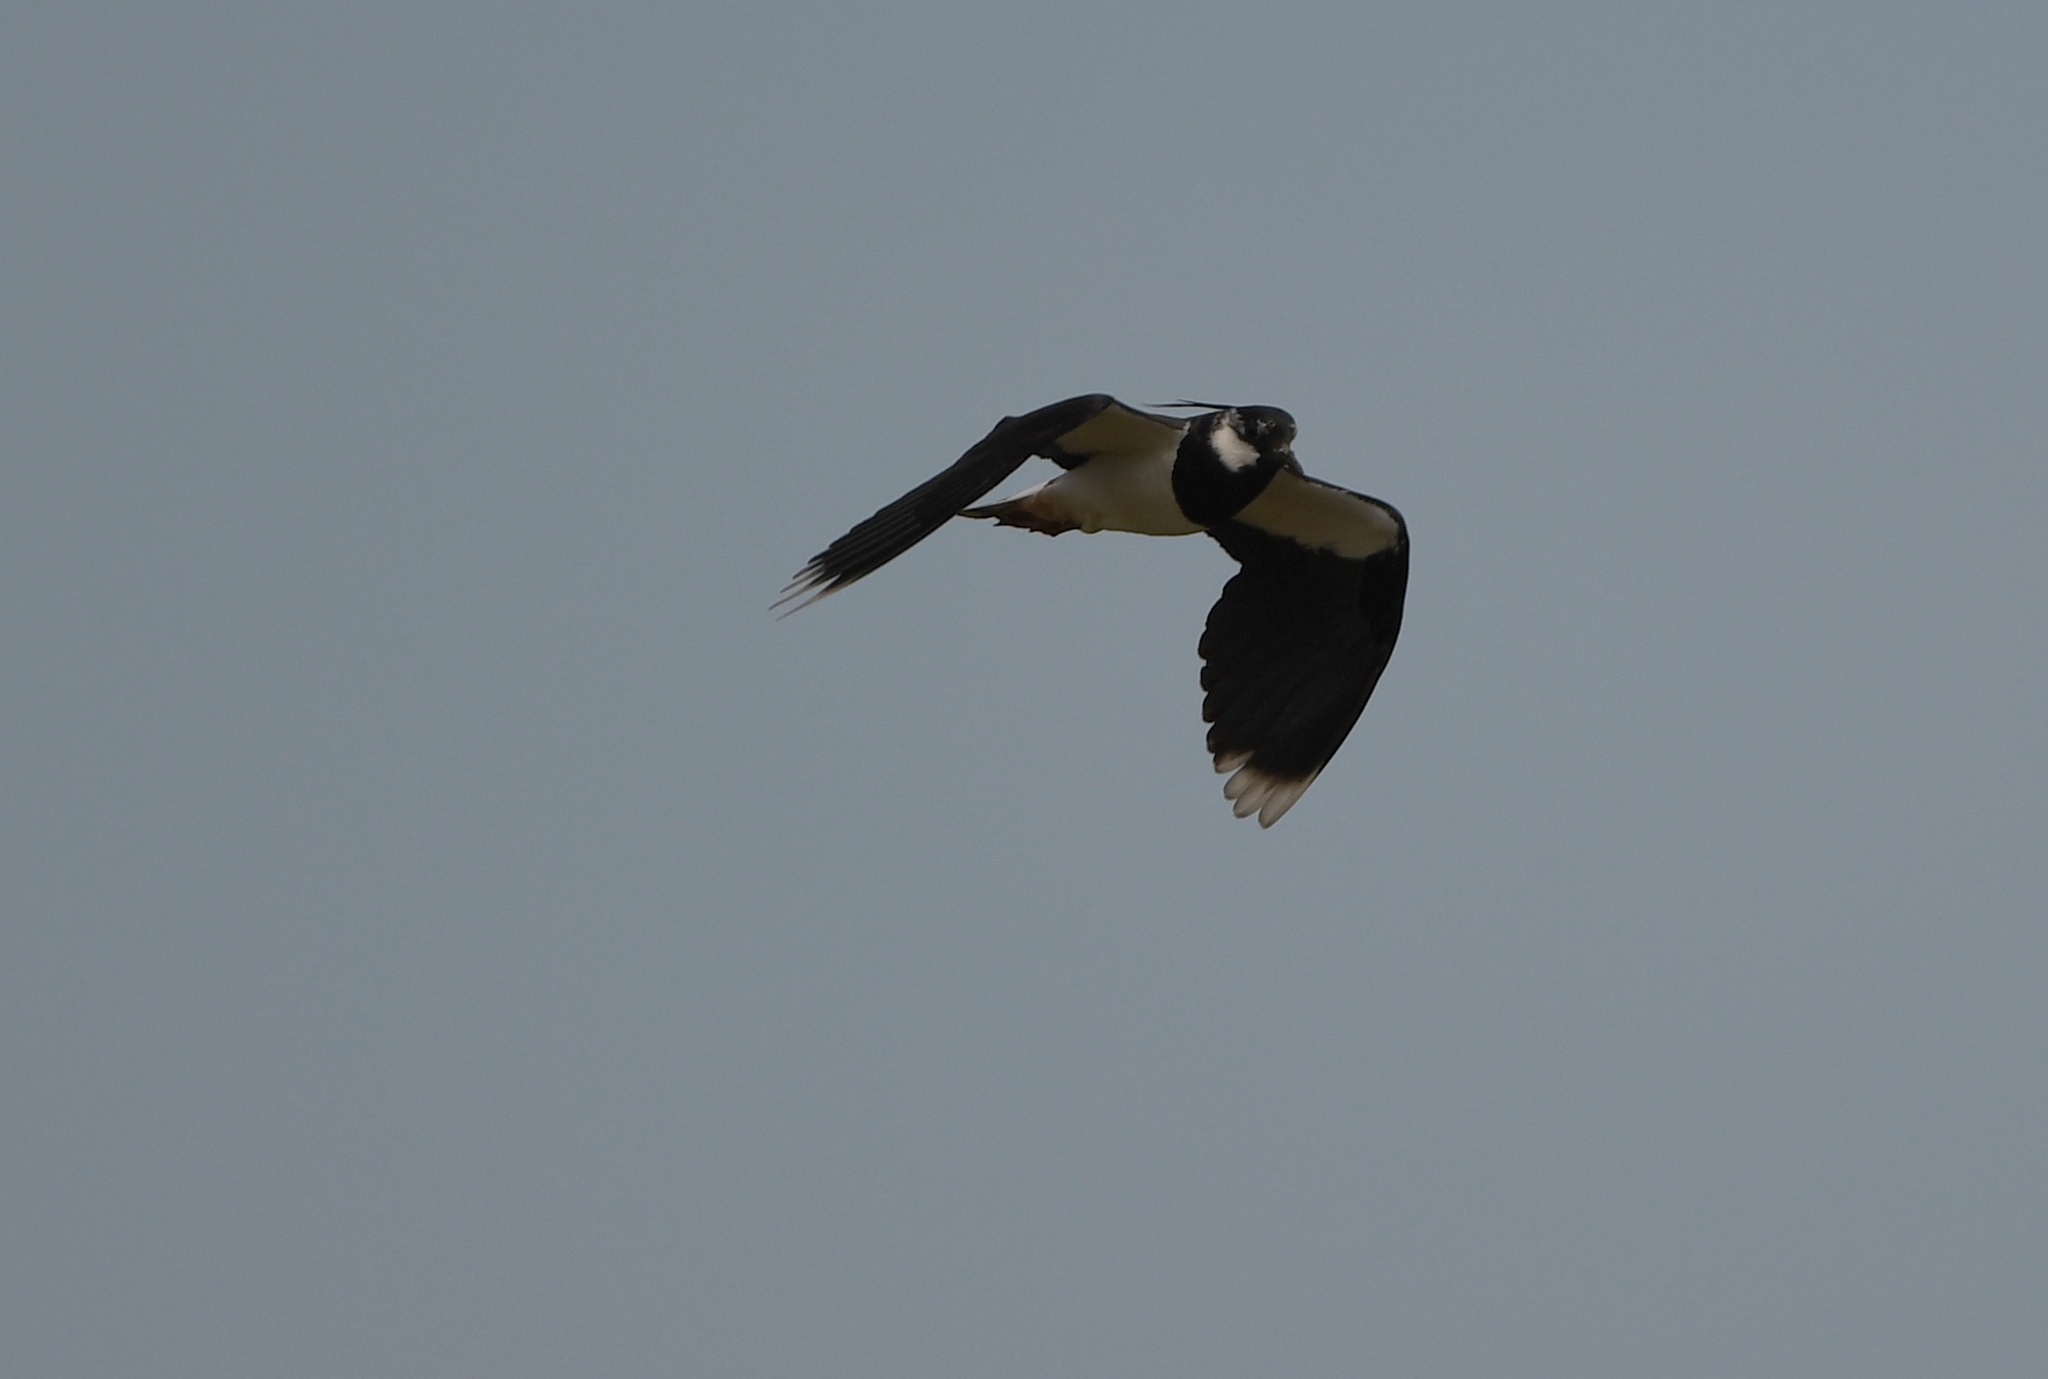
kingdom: Animalia
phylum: Chordata
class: Aves
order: Charadriiformes
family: Charadriidae
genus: Vanellus
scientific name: Vanellus vanellus
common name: Northern lapwing
